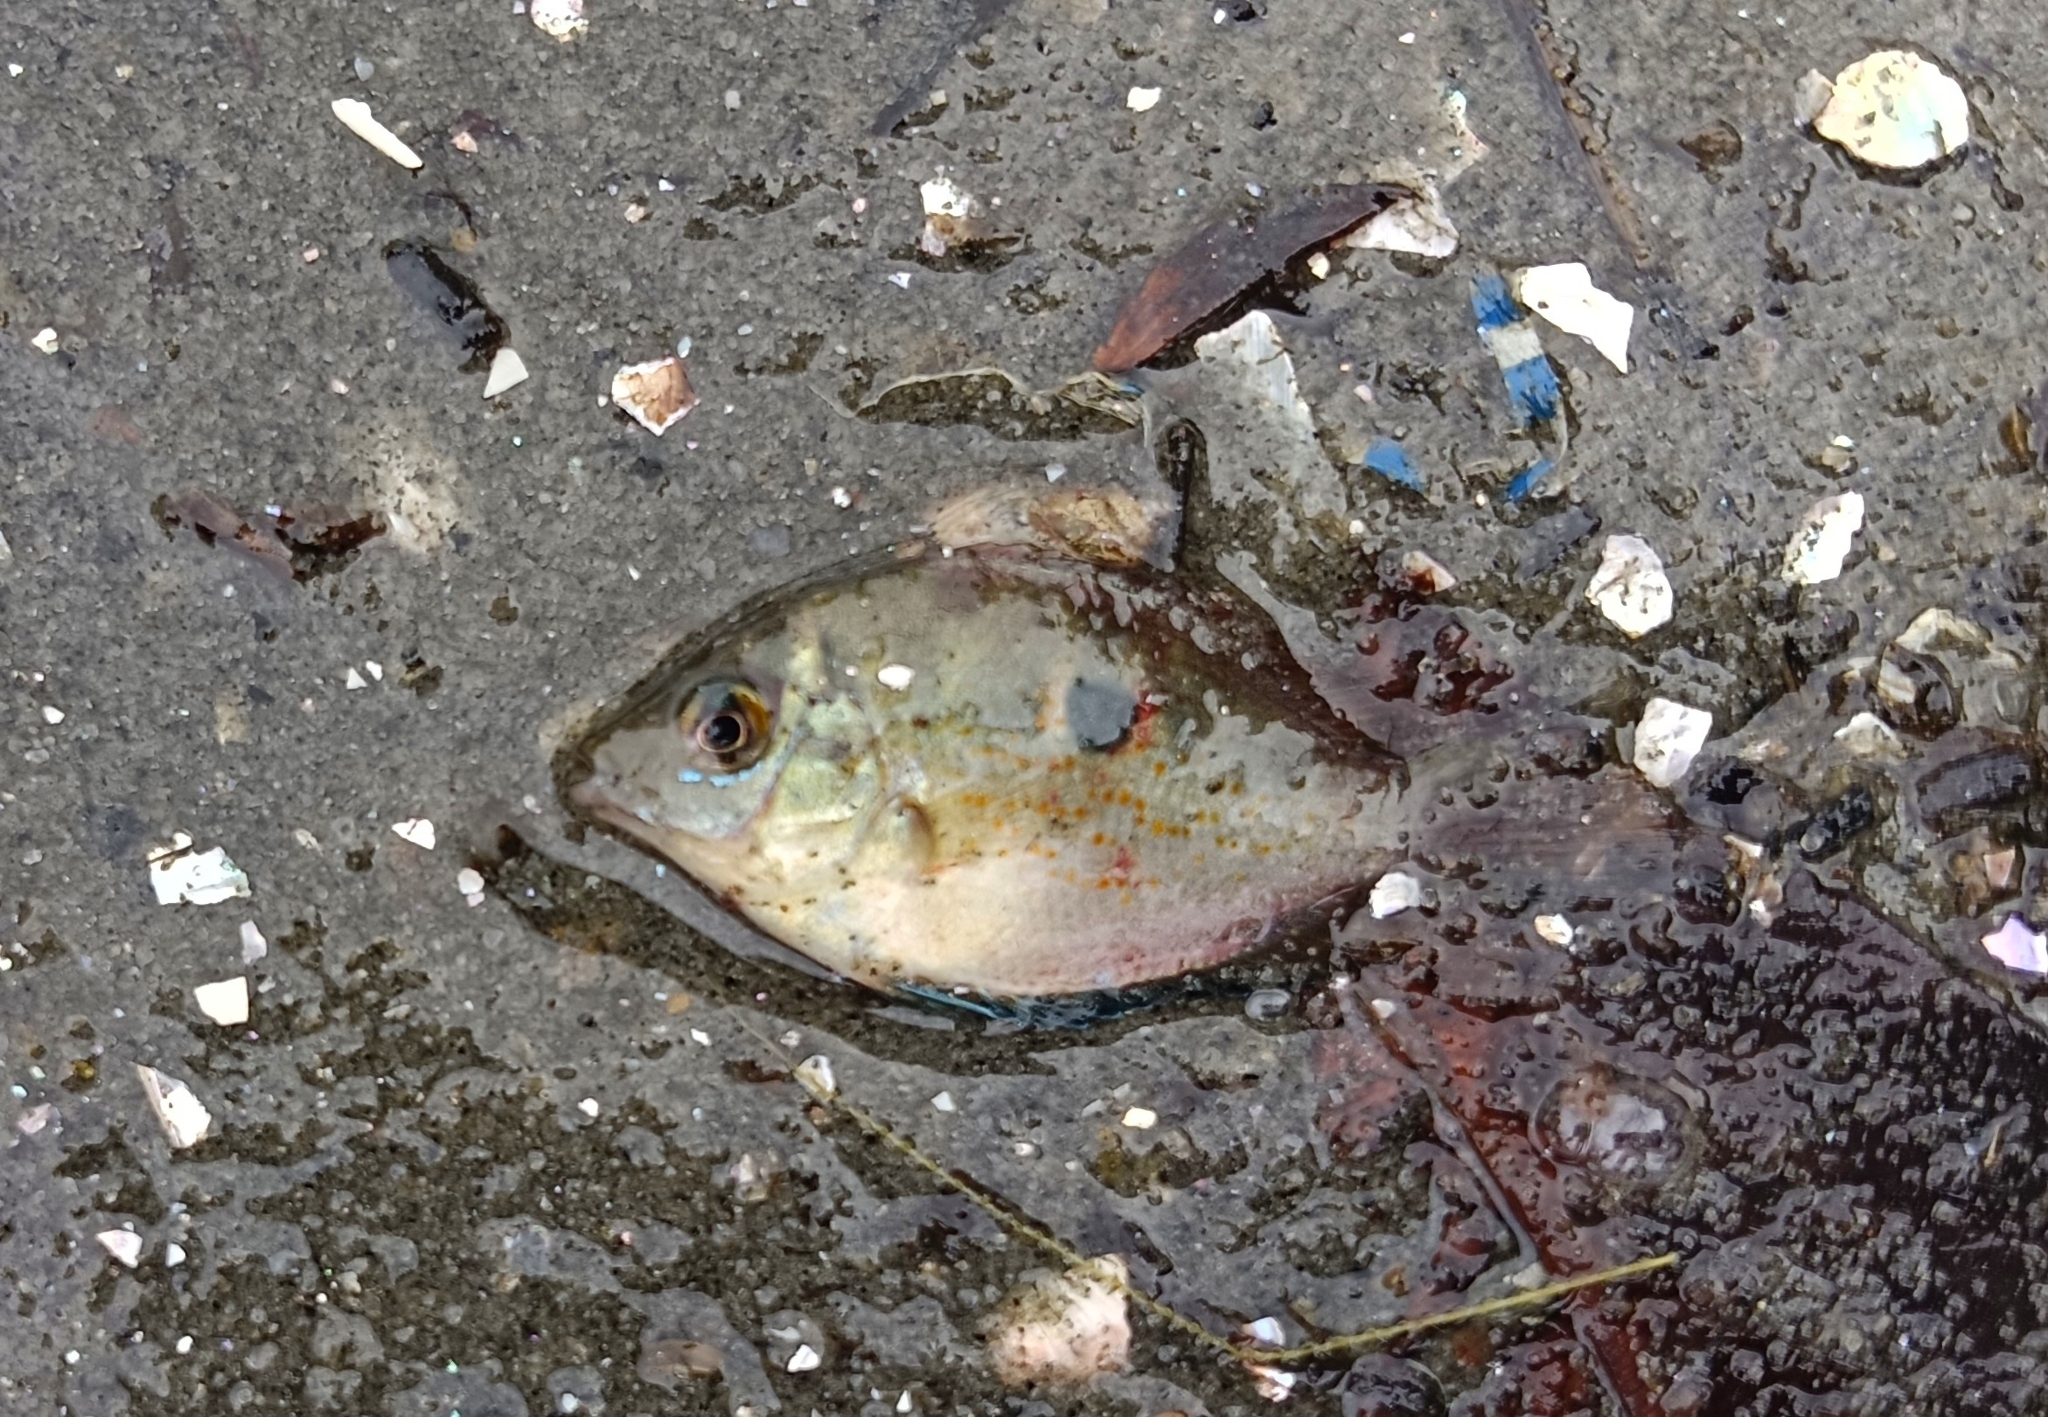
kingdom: Animalia
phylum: Chordata
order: Perciformes
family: Cichlidae
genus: Etroplus
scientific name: Etroplus maculatus
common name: Orange chromide
